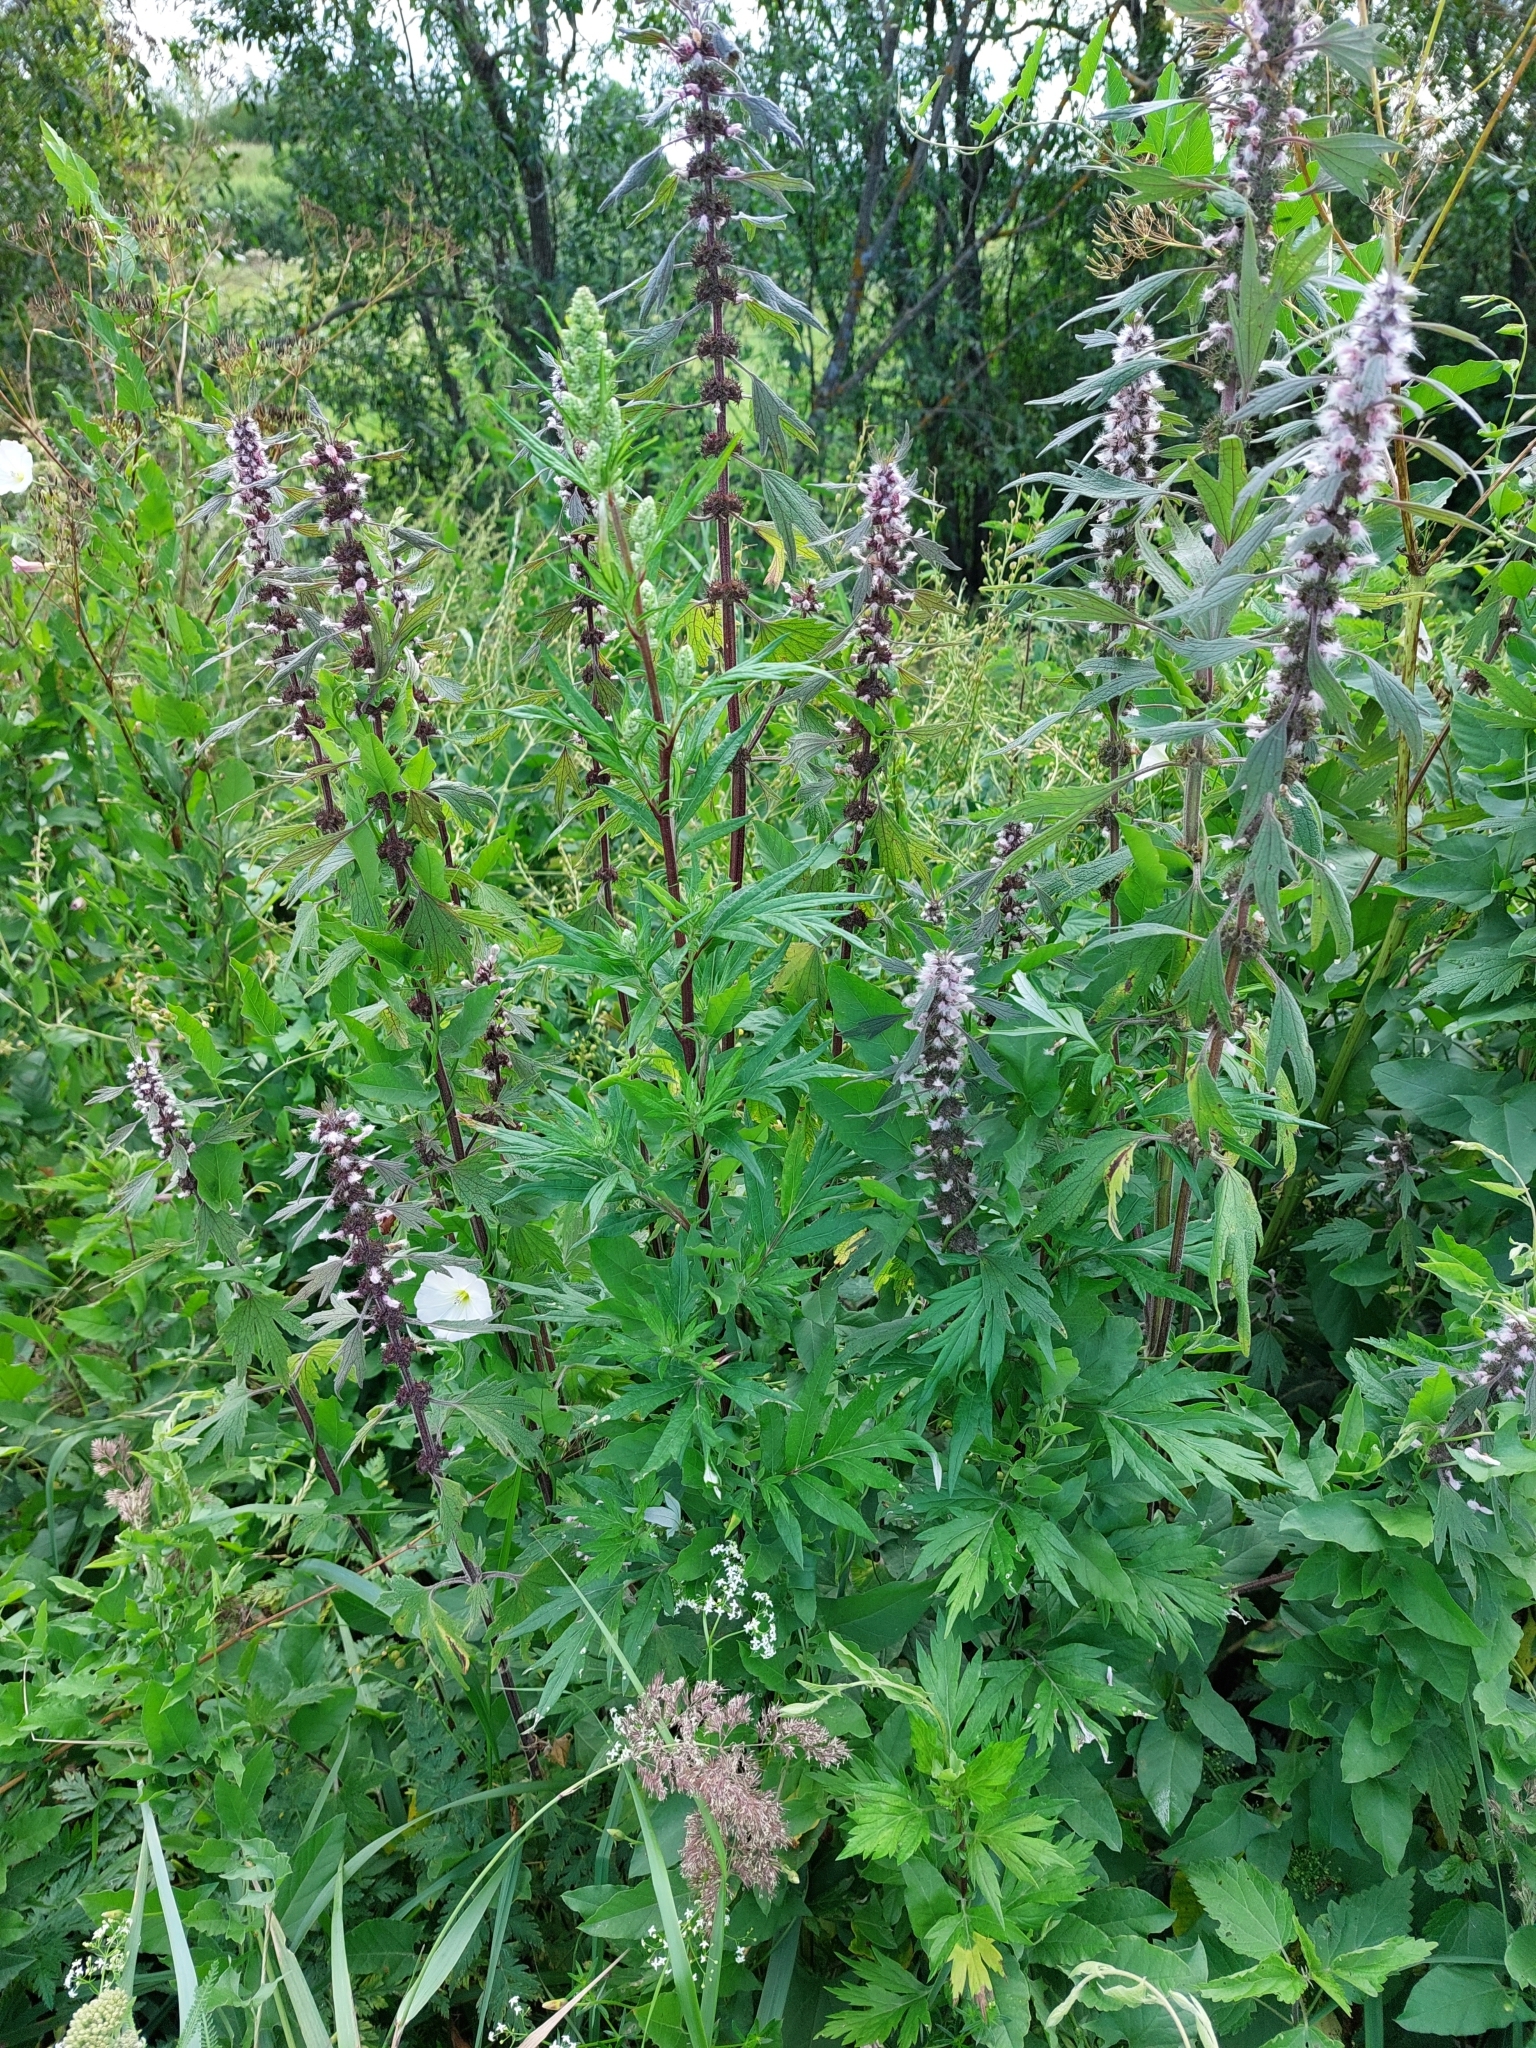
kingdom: Plantae
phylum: Tracheophyta
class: Magnoliopsida
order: Lamiales
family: Lamiaceae
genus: Leonurus
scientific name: Leonurus quinquelobatus
